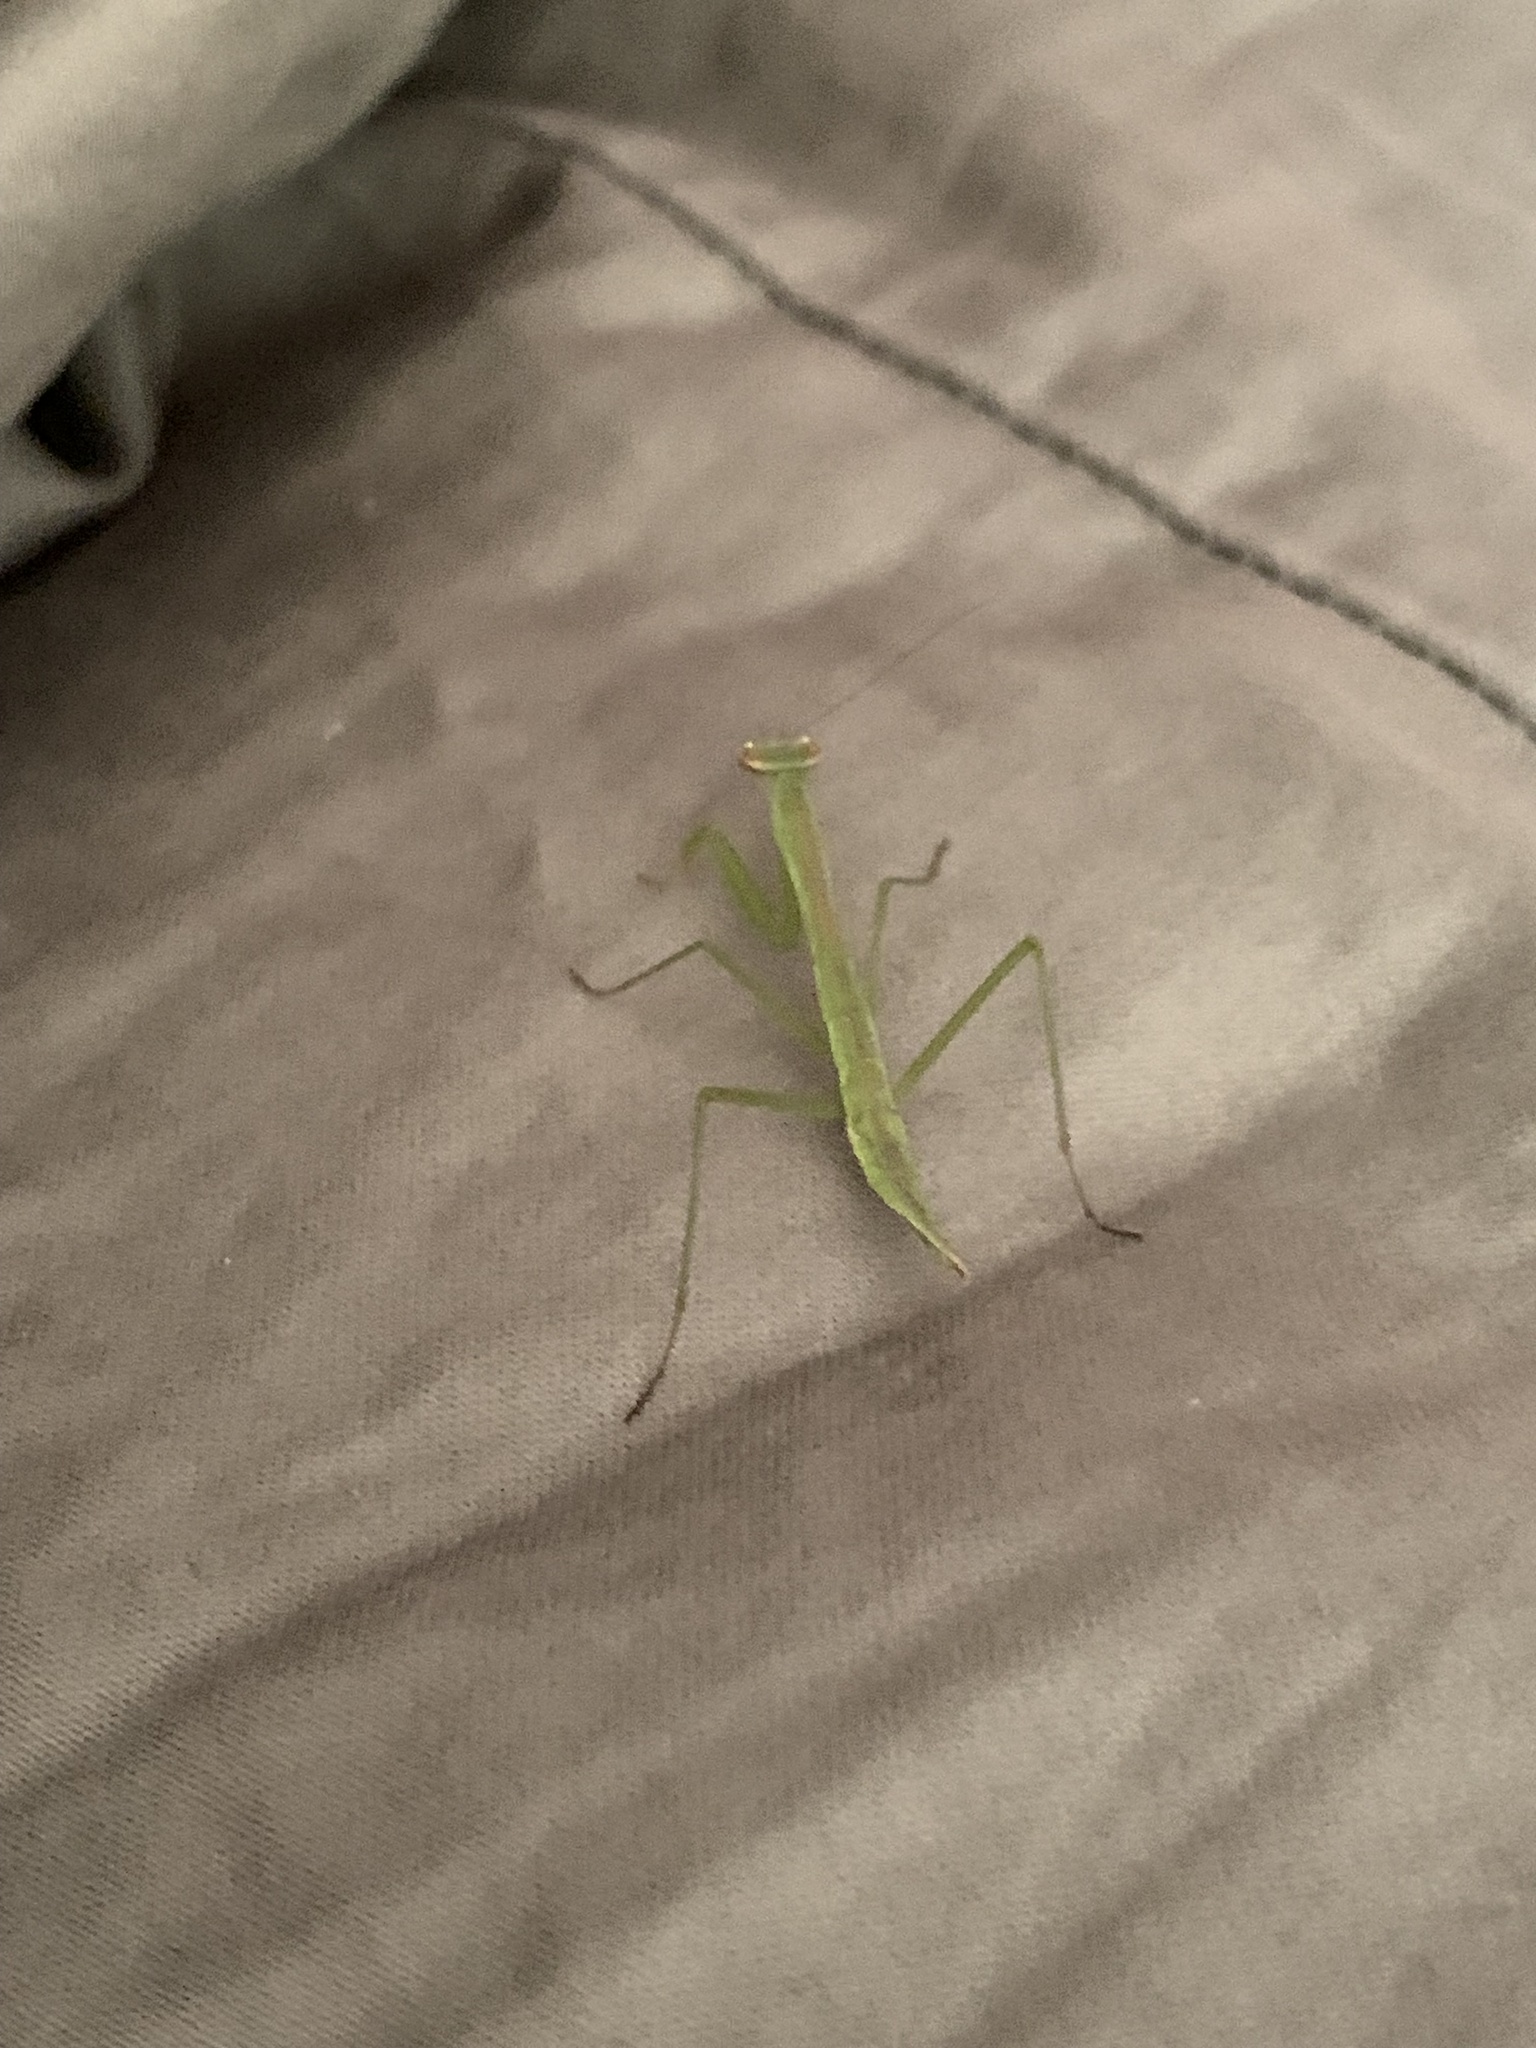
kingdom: Animalia
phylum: Arthropoda
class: Insecta
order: Mantodea
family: Mantidae
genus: Tenodera
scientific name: Tenodera sinensis
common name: Chinese mantis
